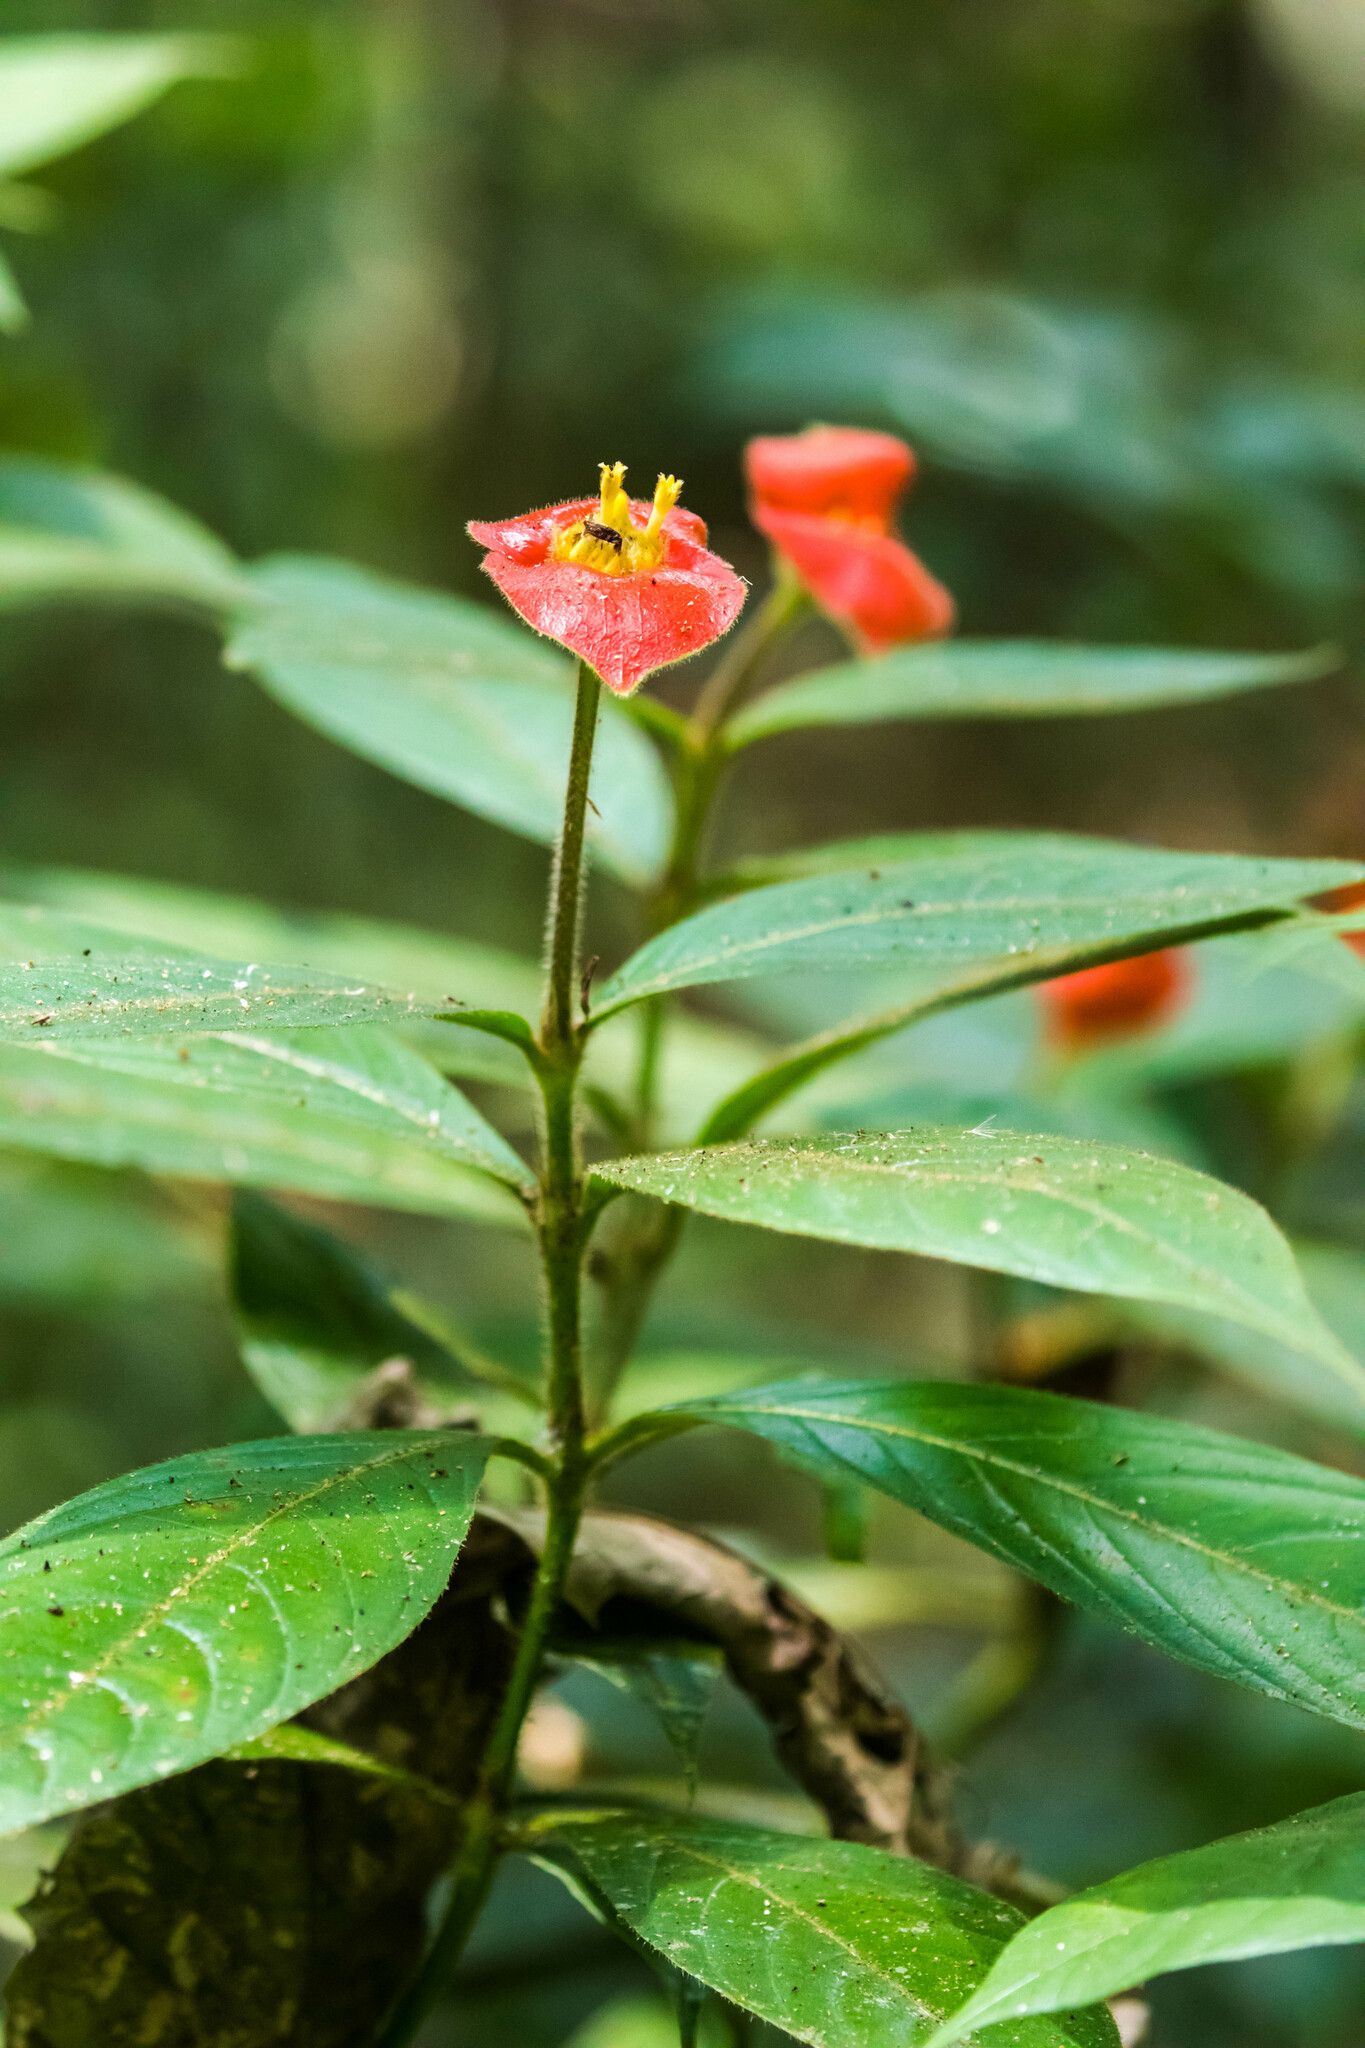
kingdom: Plantae
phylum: Tracheophyta
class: Magnoliopsida
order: Gentianales
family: Rubiaceae
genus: Palicourea
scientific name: Palicourea tomentosa
